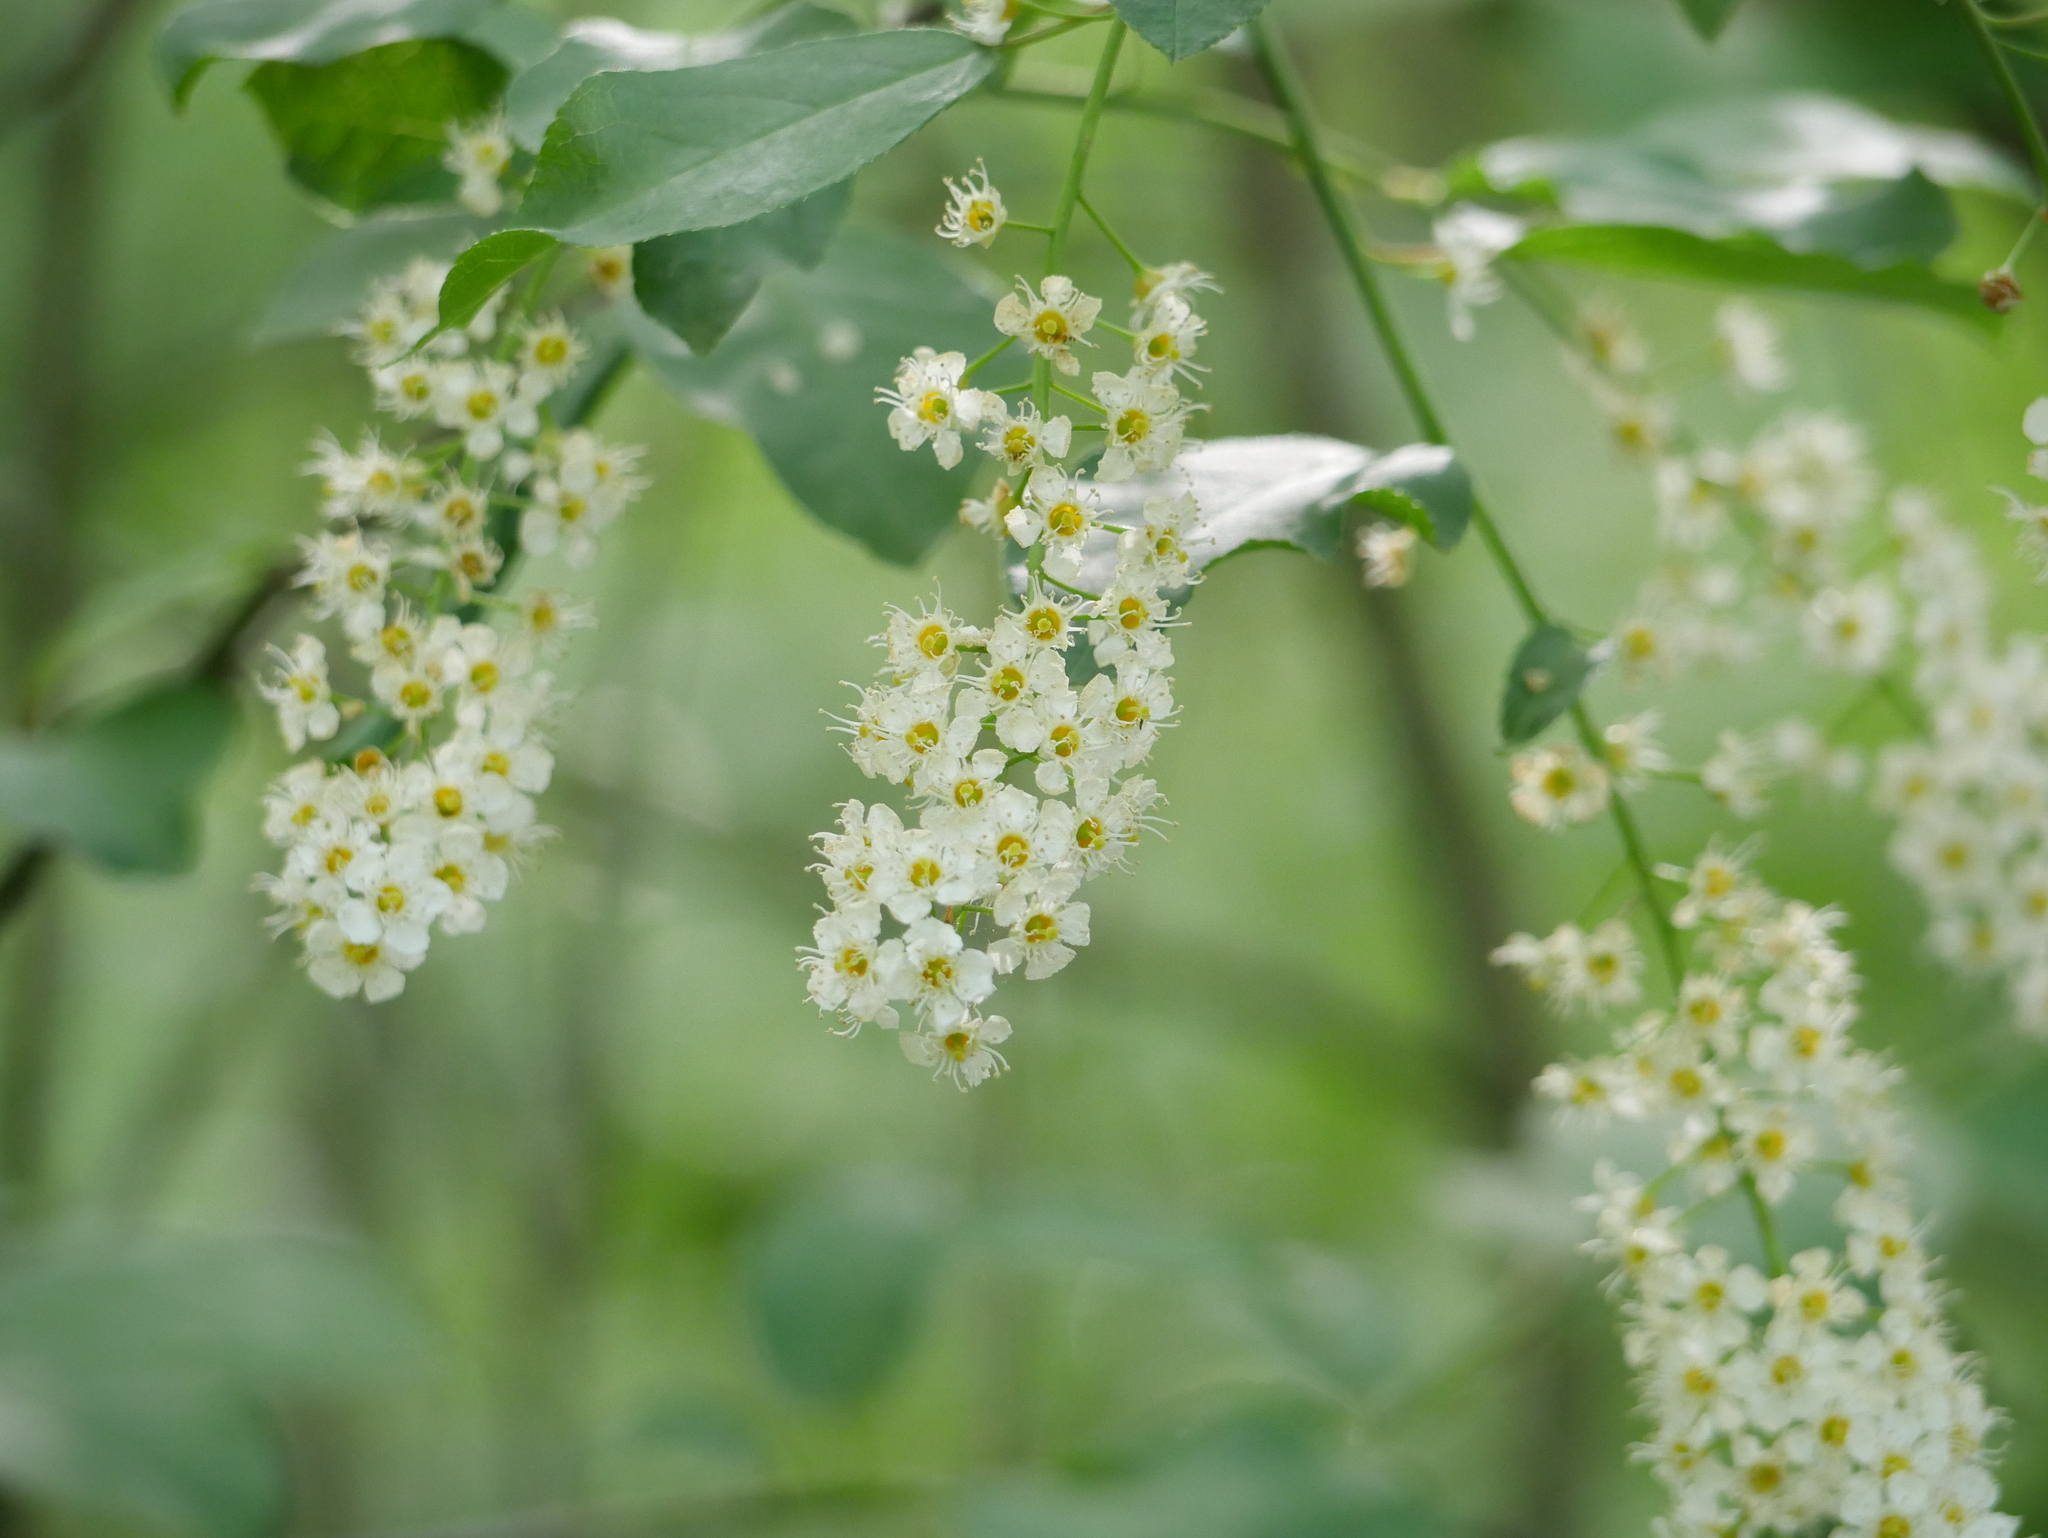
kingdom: Plantae
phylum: Tracheophyta
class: Magnoliopsida
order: Rosales
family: Rosaceae
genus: Prunus
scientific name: Prunus padus
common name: Bird cherry
